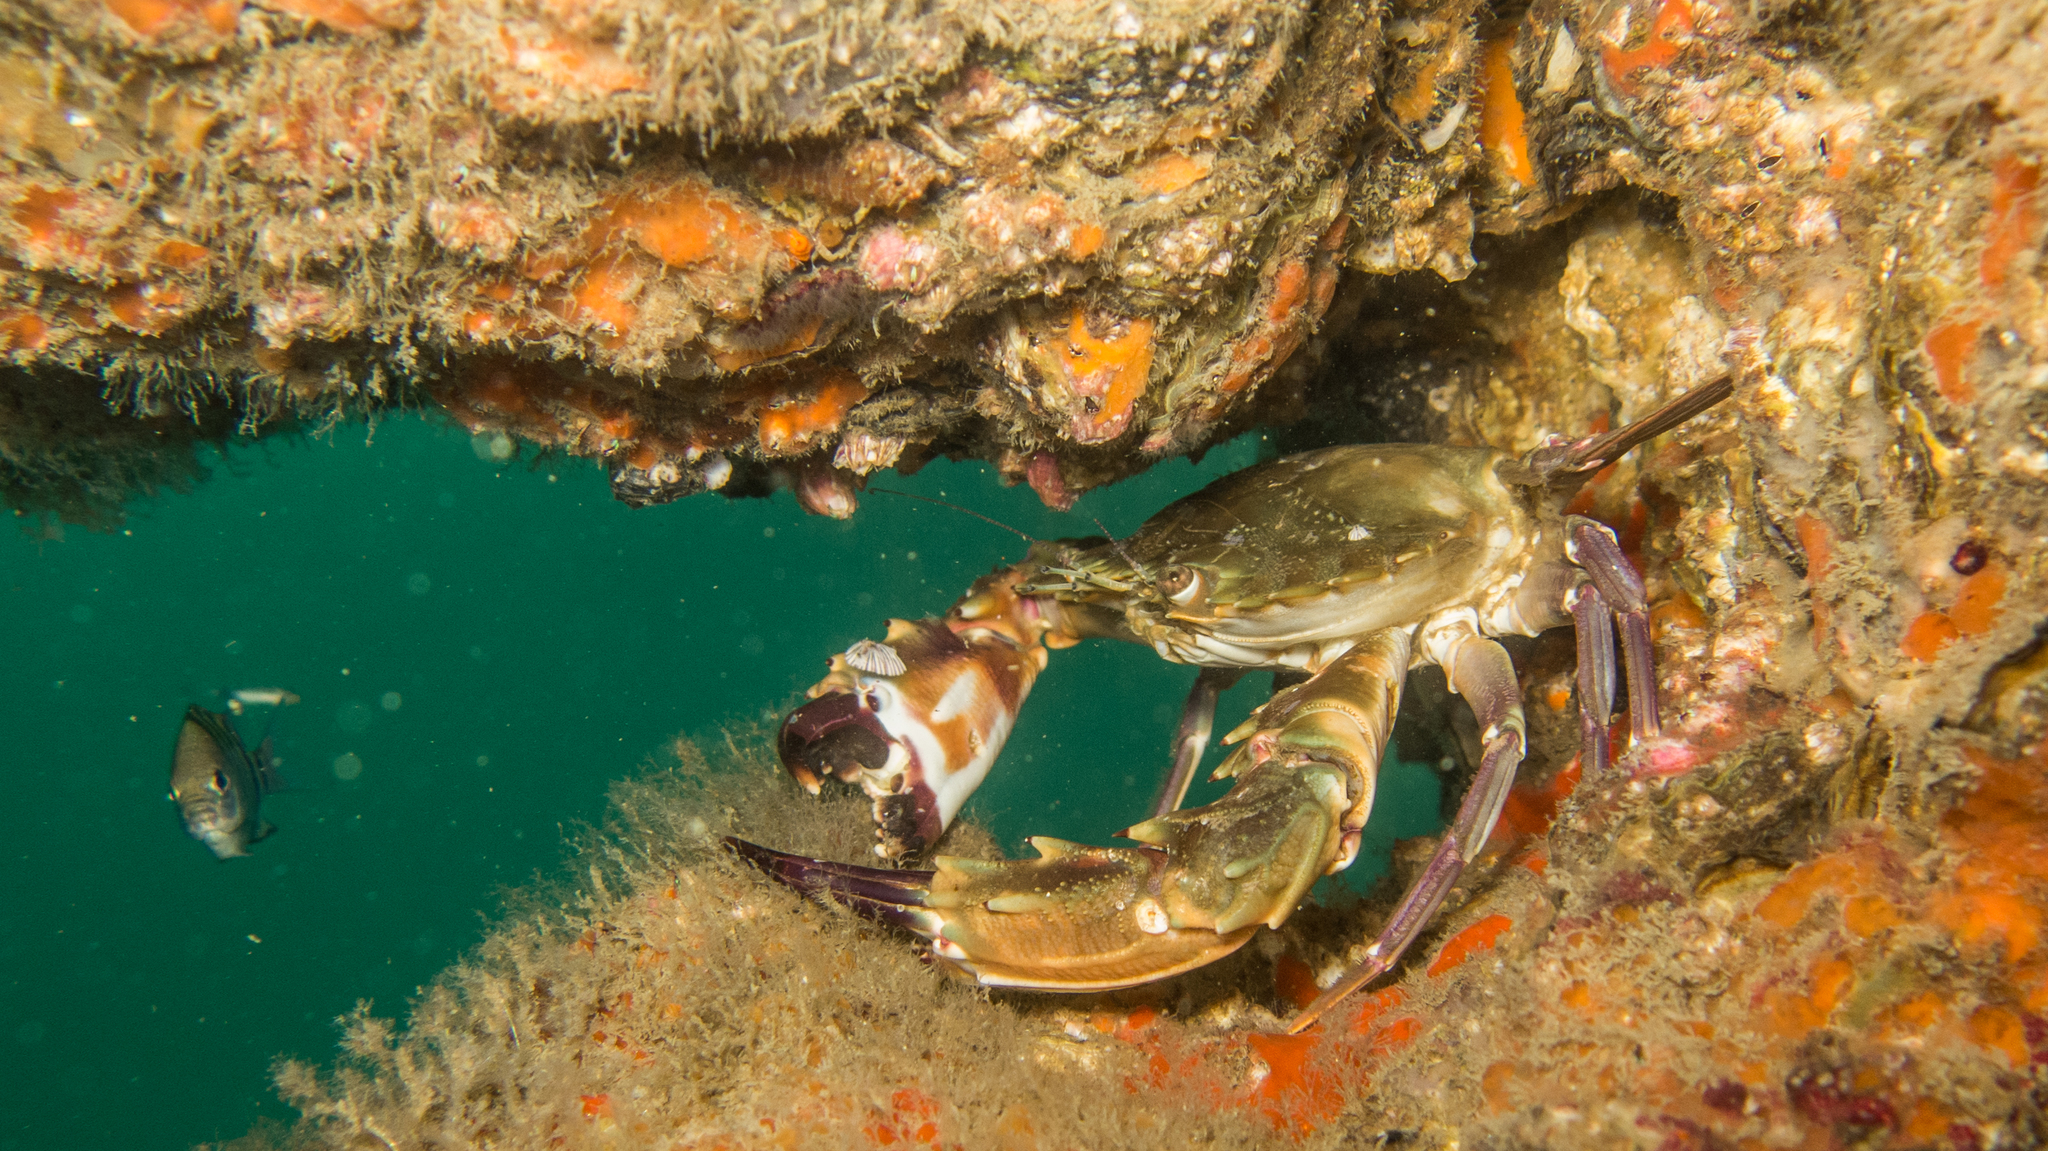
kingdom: Animalia
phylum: Arthropoda
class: Malacostraca
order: Decapoda
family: Portunidae
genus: Charybdis
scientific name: Charybdis hellerii
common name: Spiny hands
